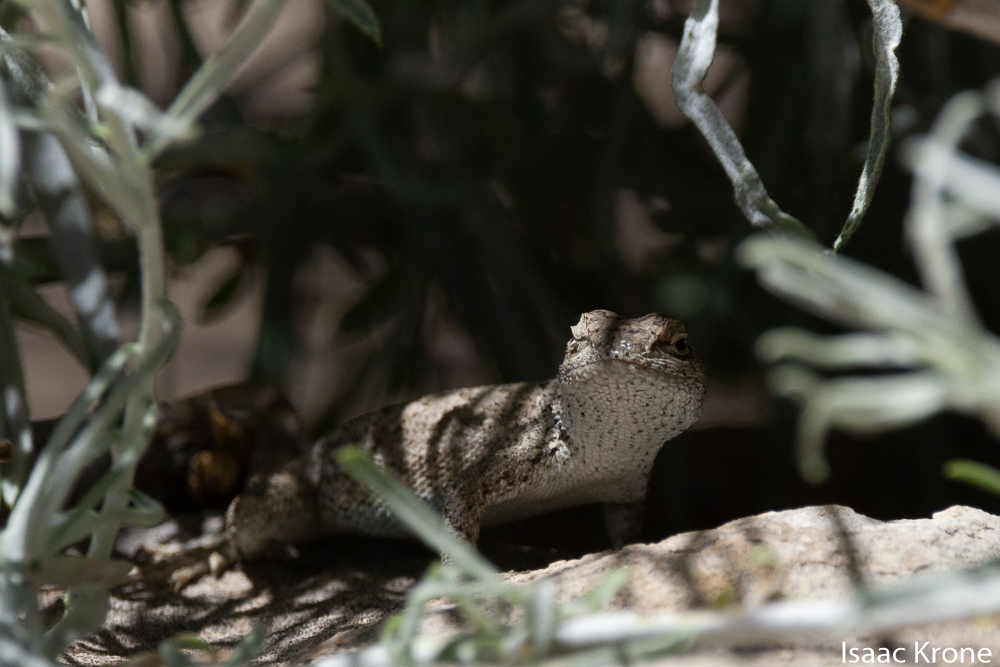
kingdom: Animalia
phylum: Chordata
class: Squamata
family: Phrynosomatidae
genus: Sceloporus
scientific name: Sceloporus tristichus
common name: Plateau fence lizard
